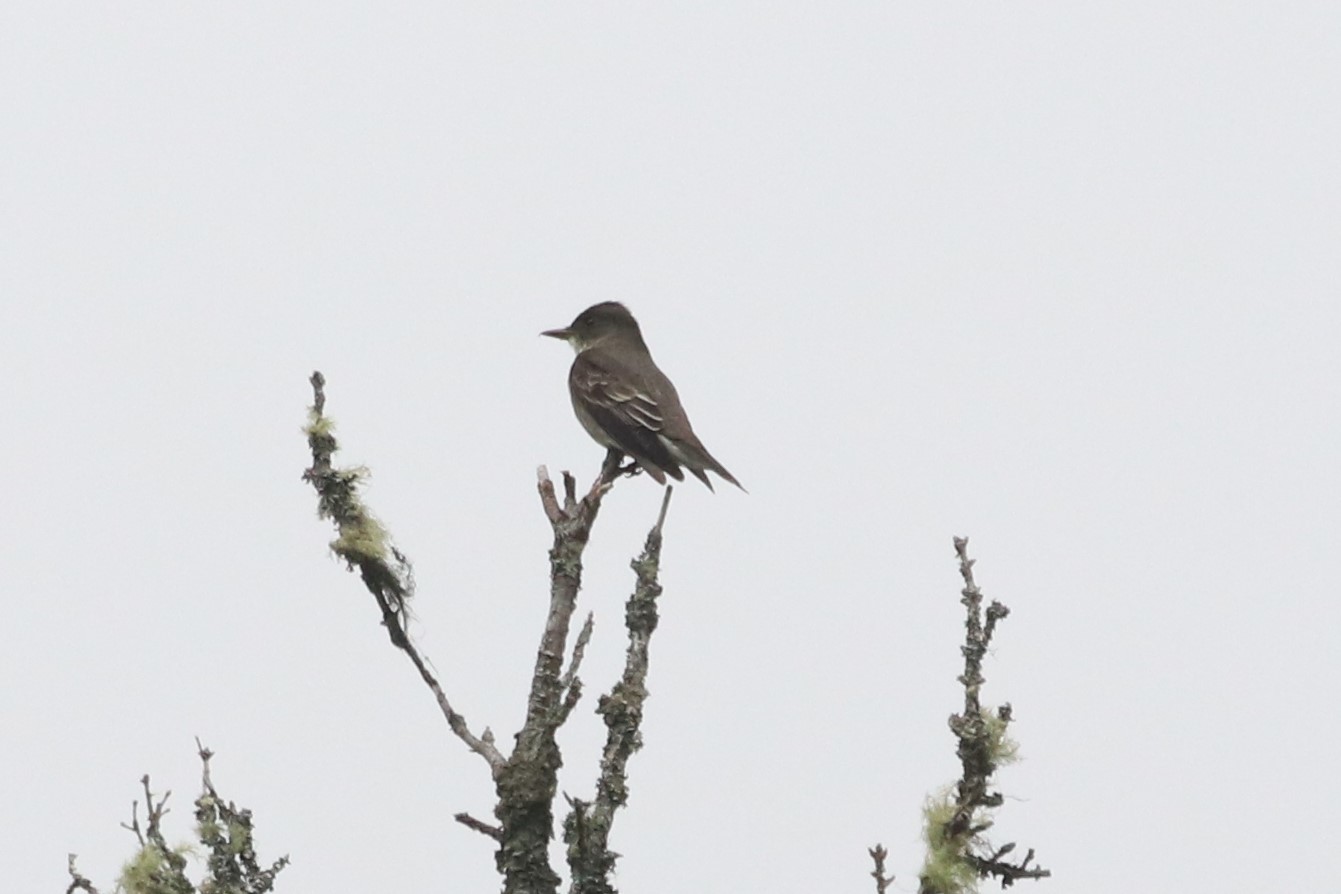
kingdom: Animalia
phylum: Chordata
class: Aves
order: Passeriformes
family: Tyrannidae
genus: Contopus
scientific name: Contopus cooperi
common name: Olive-sided flycatcher
